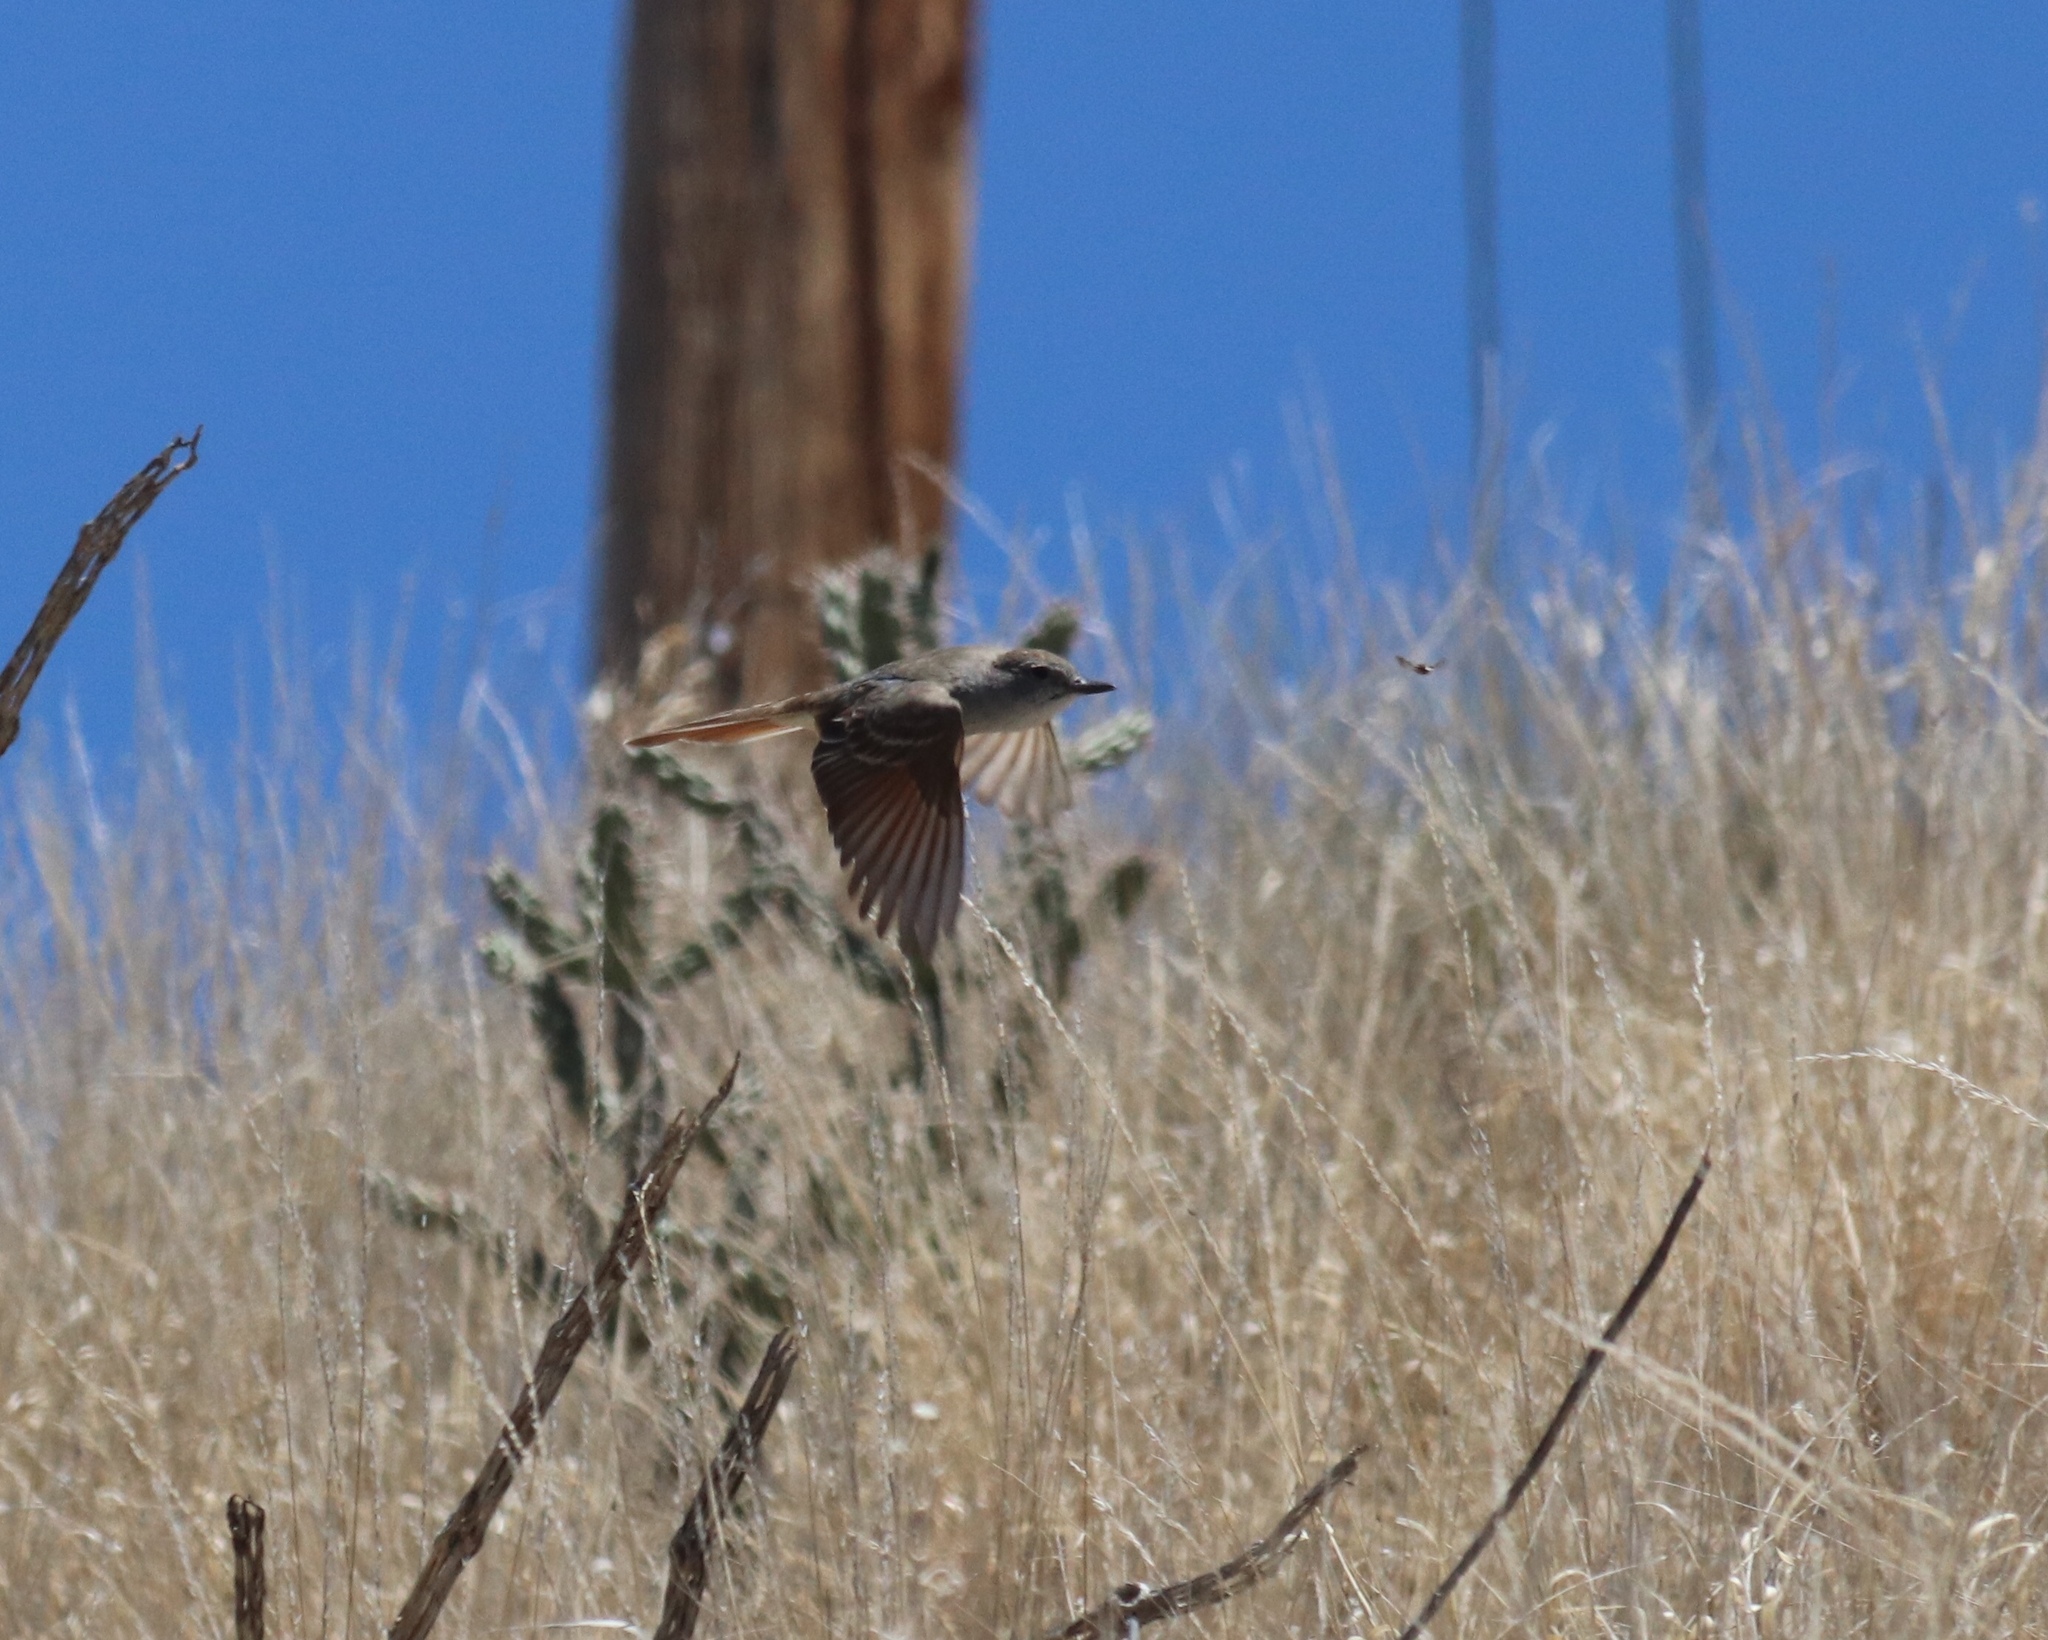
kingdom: Animalia
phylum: Chordata
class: Aves
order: Passeriformes
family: Tyrannidae
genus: Myiarchus
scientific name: Myiarchus cinerascens
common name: Ash-throated flycatcher
